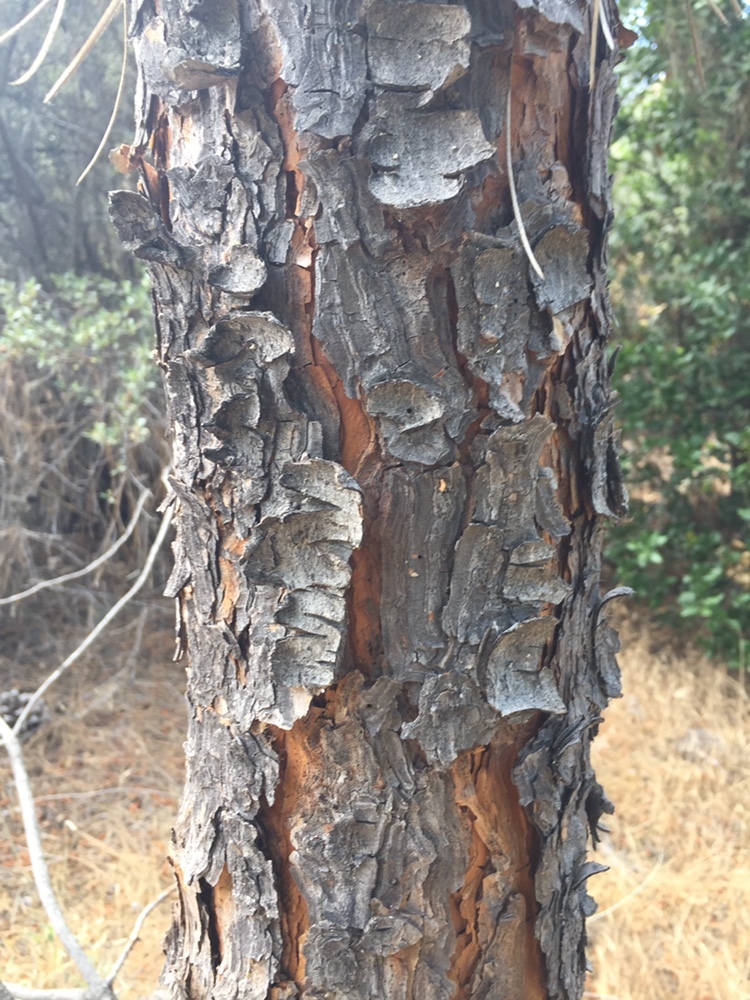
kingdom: Plantae
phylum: Tracheophyta
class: Pinopsida
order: Pinales
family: Pinaceae
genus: Pinus
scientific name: Pinus sabiniana
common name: Bull pine
